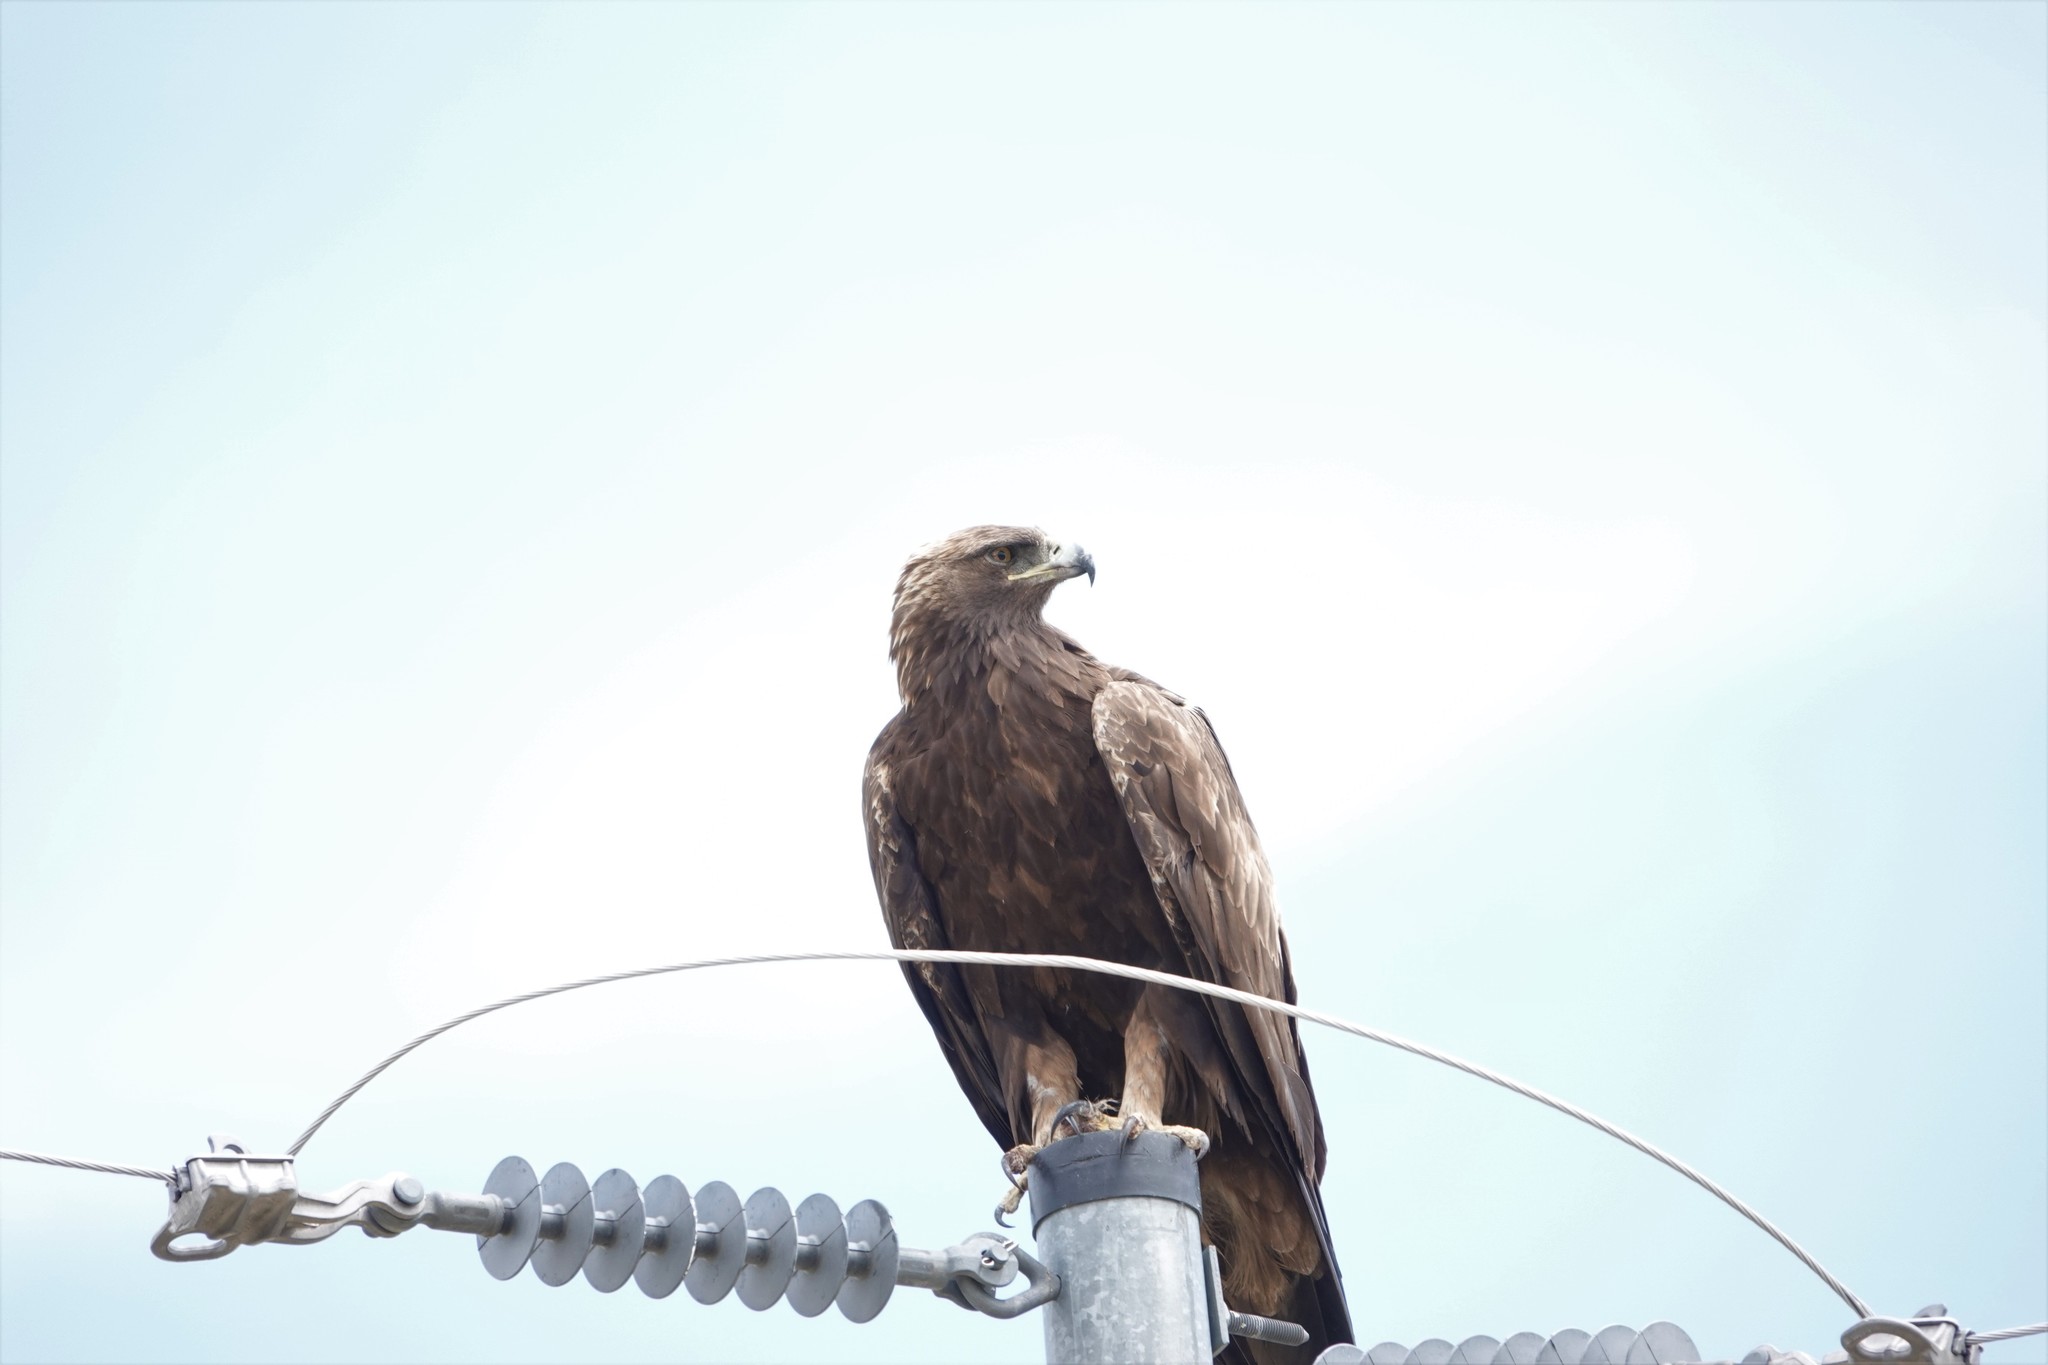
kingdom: Animalia
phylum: Chordata
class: Aves
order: Accipitriformes
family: Accipitridae
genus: Aquila
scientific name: Aquila chrysaetos
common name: Golden eagle
